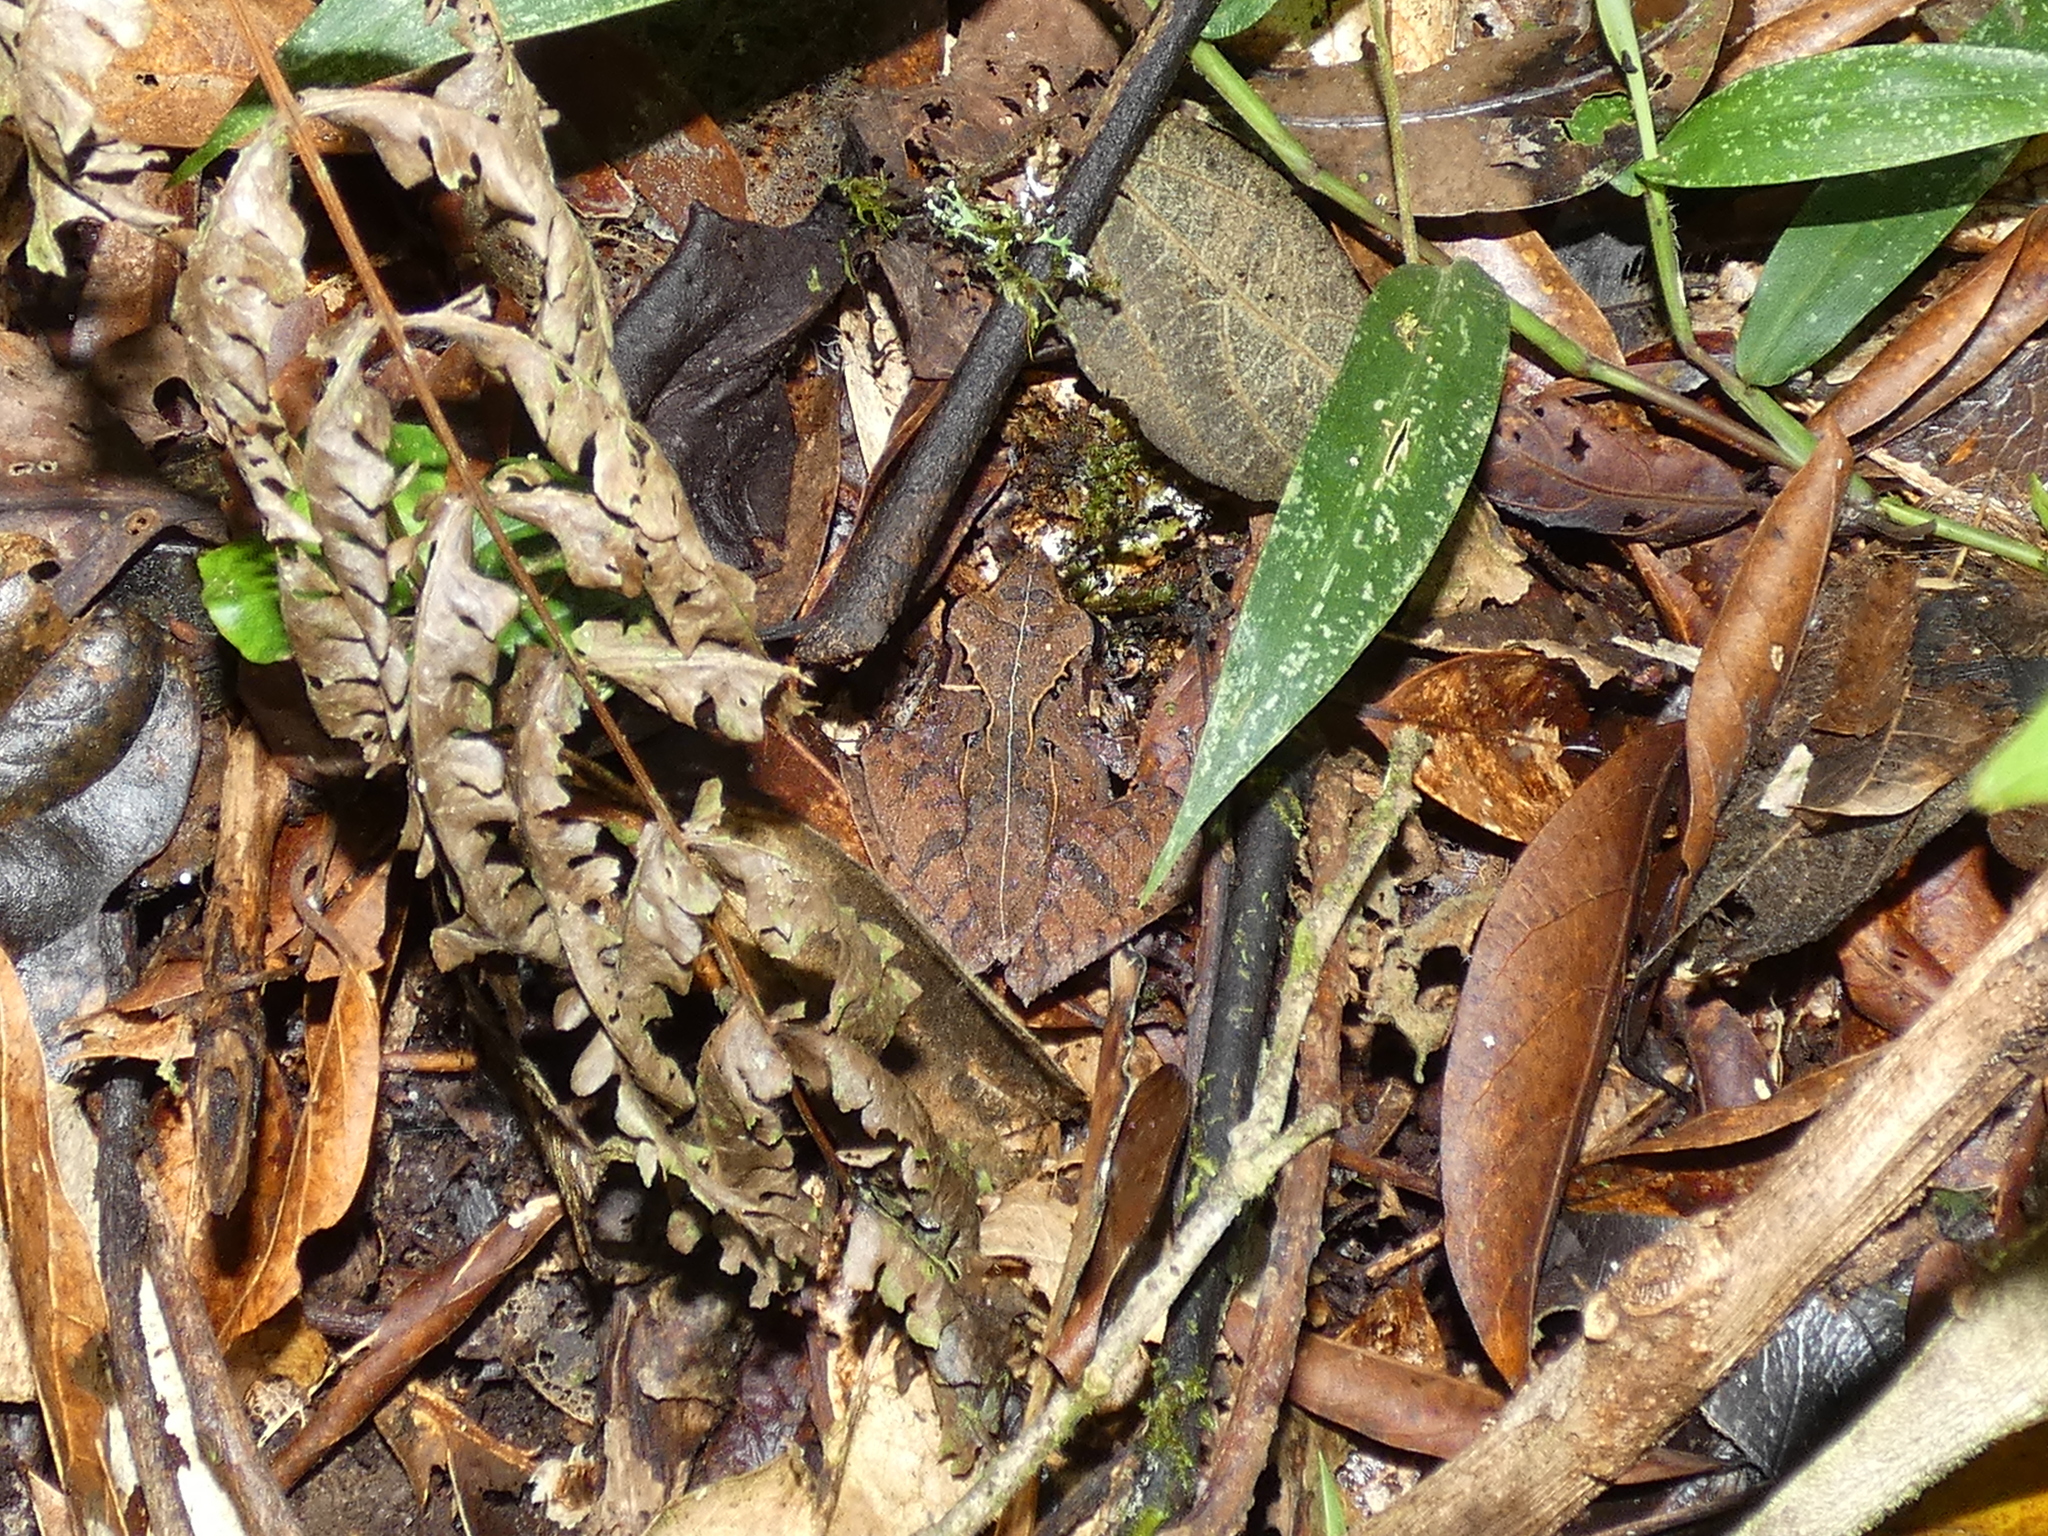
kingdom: Animalia
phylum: Chordata
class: Amphibia
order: Anura
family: Mantellidae
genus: Gephyromantis
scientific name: Gephyromantis luteus
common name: White madagascar frog
